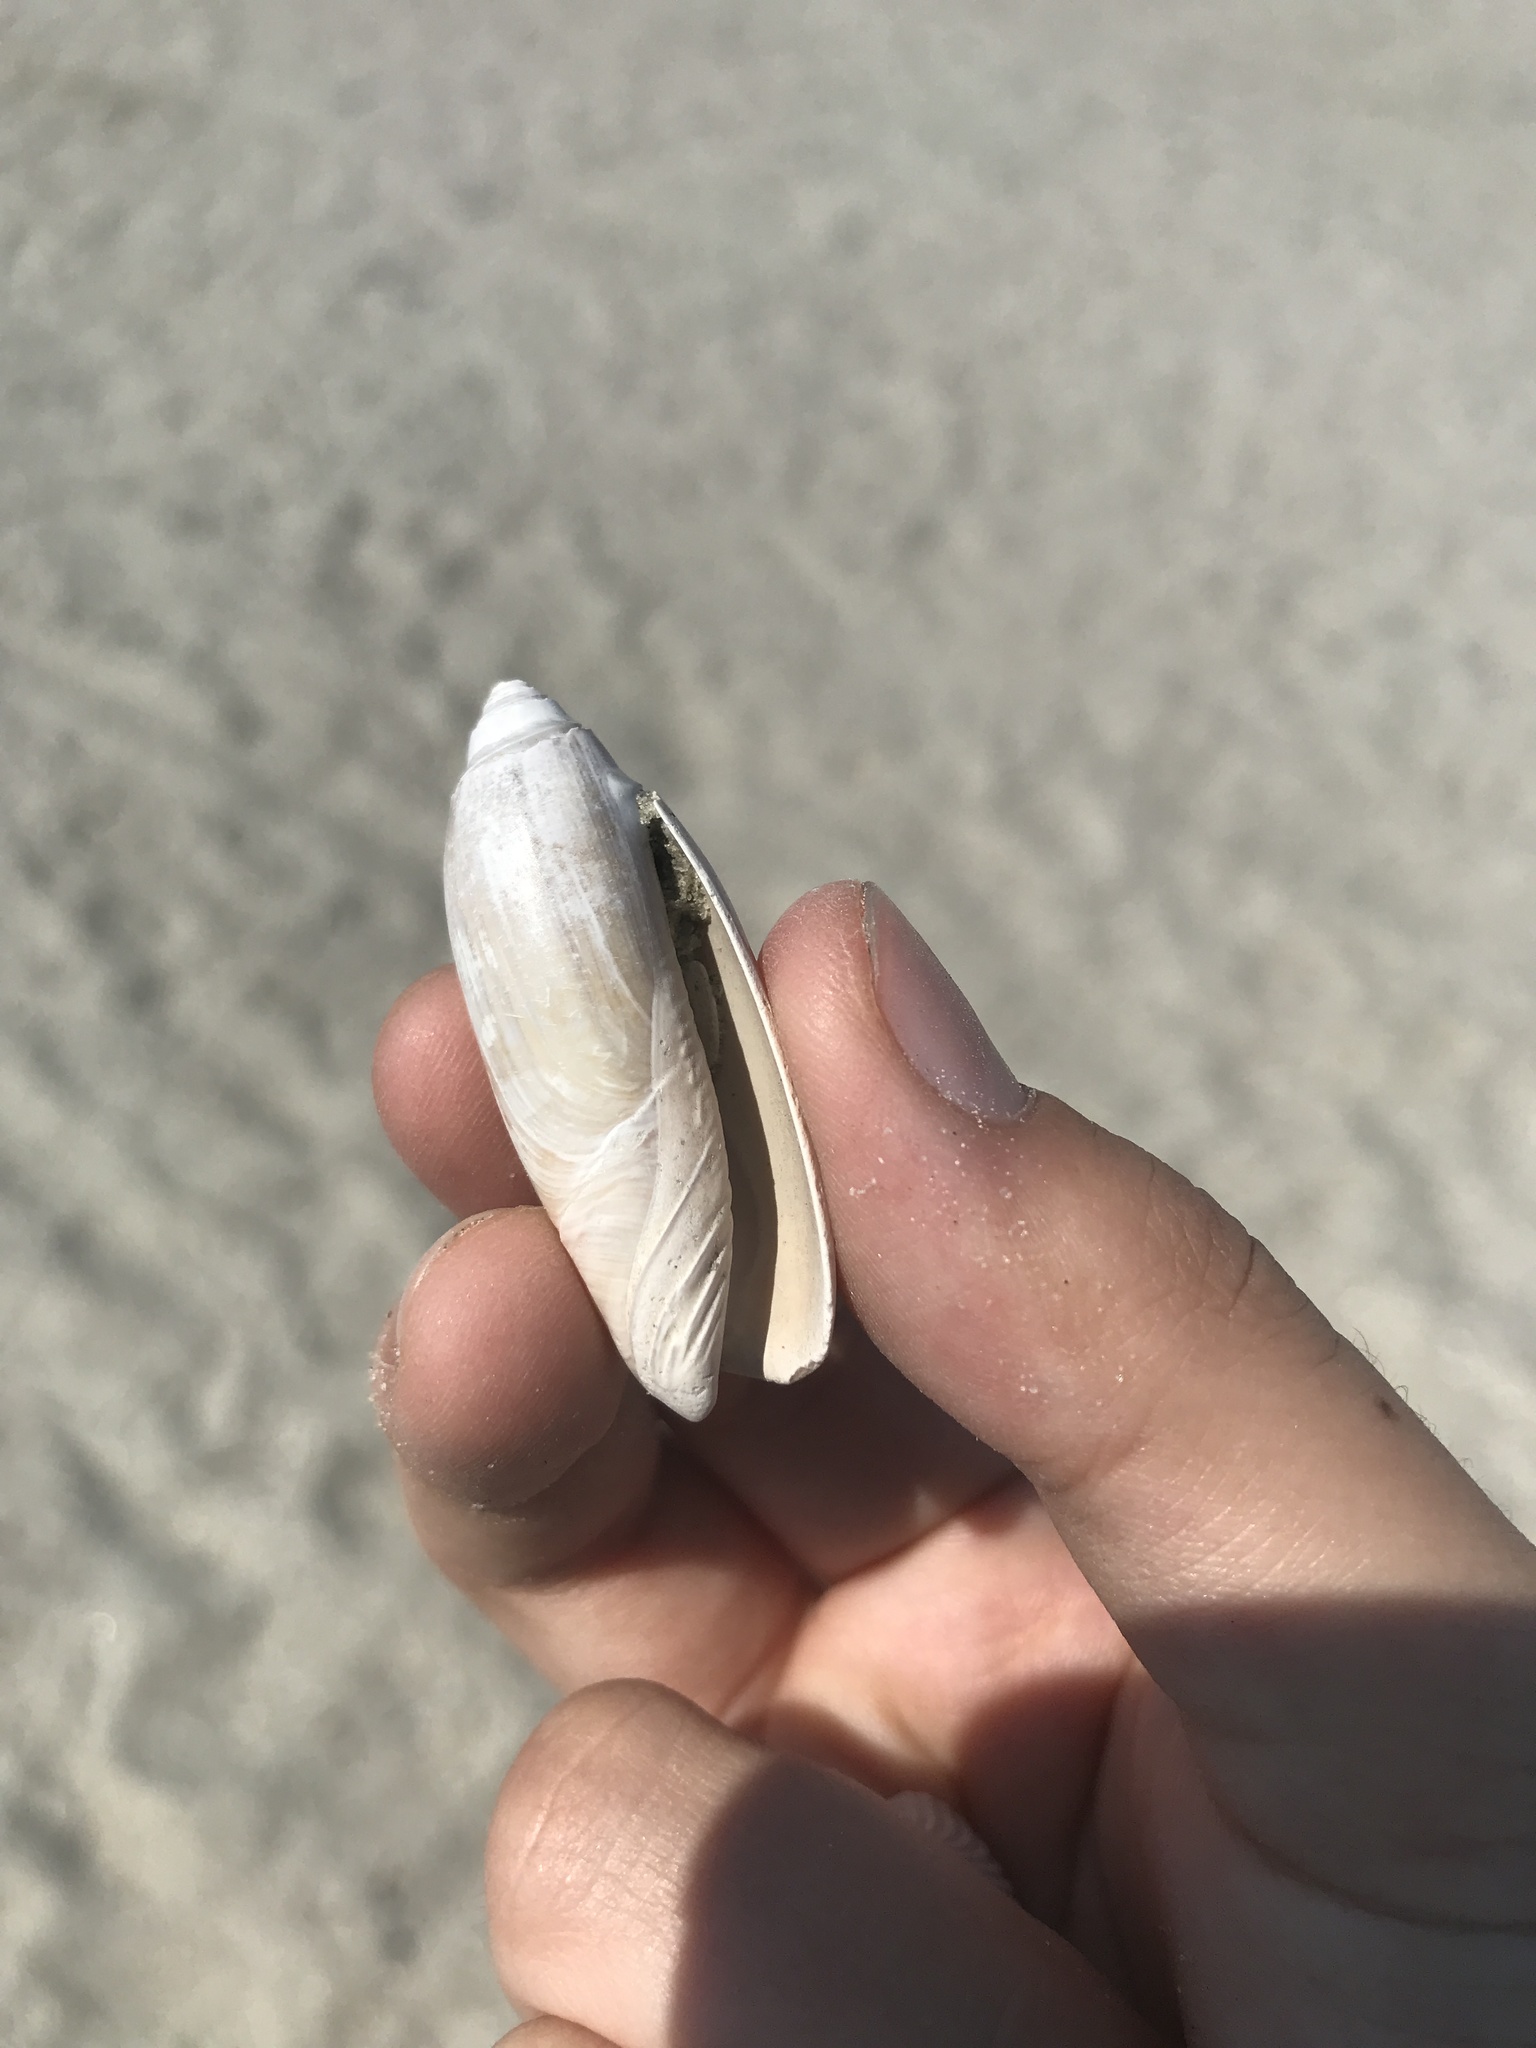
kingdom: Animalia
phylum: Mollusca
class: Gastropoda
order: Neogastropoda
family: Olividae
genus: Oliva
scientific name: Oliva sayana
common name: Lettered olive
